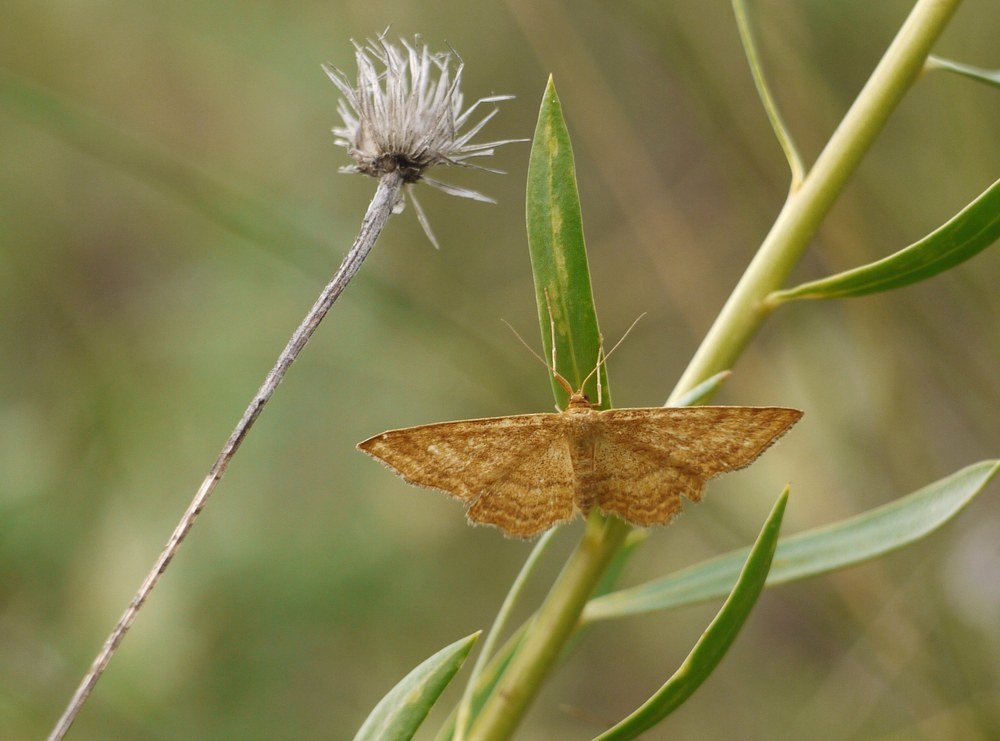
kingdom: Animalia
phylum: Arthropoda
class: Insecta
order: Lepidoptera
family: Geometridae
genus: Idaea
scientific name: Idaea ochrata
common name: Bright wave
